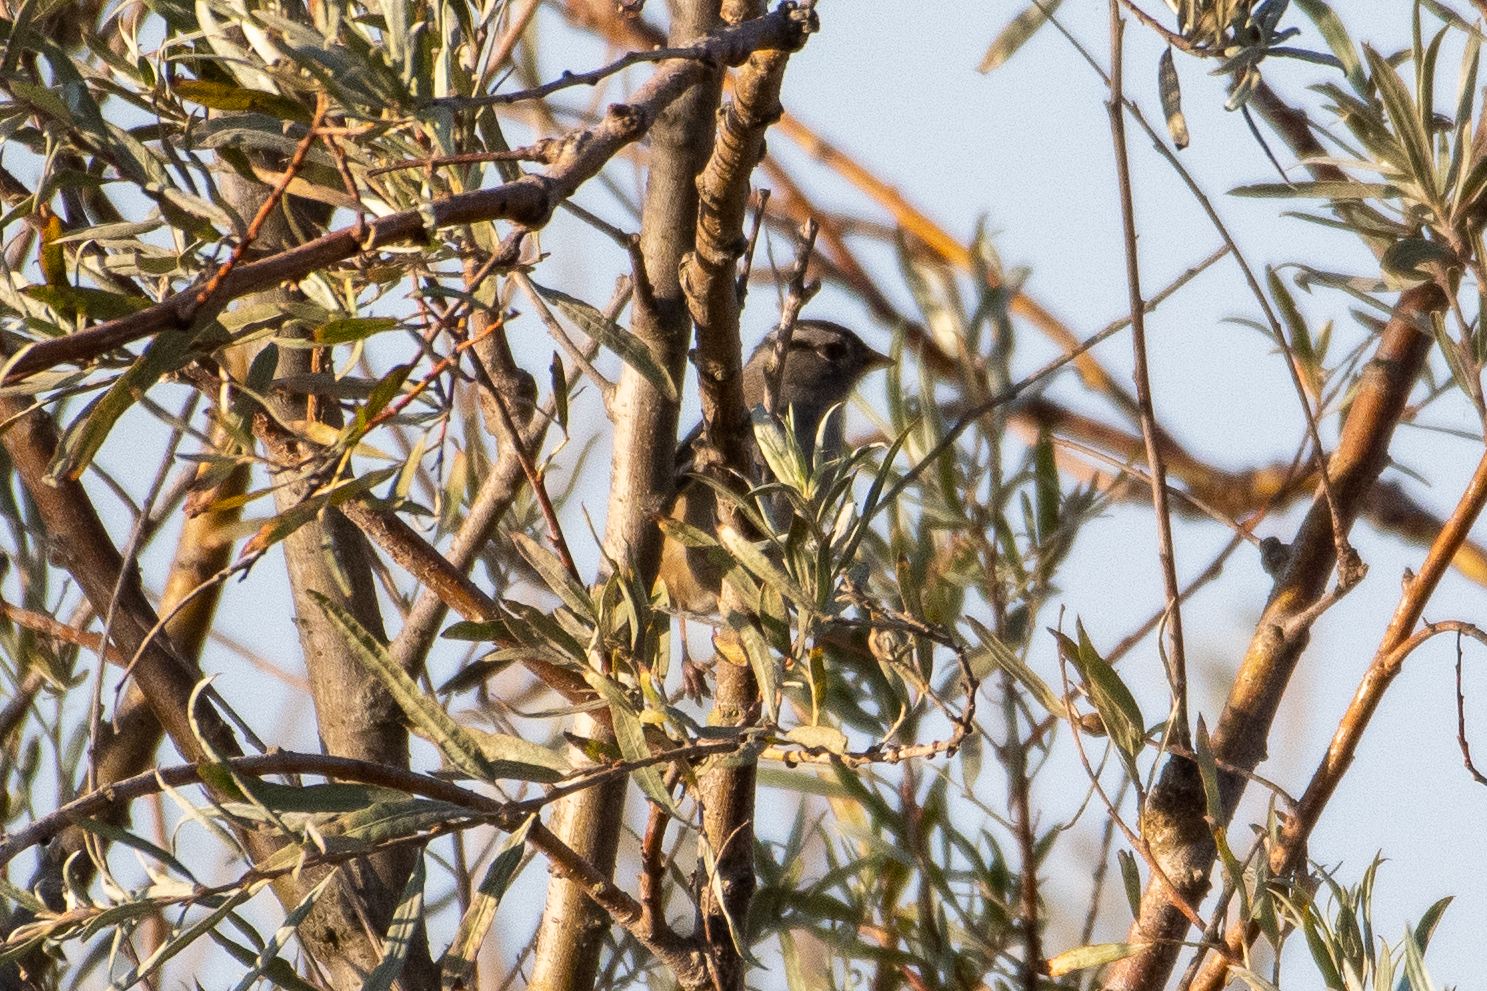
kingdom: Animalia
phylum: Chordata
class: Aves
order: Passeriformes
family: Passerellidae
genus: Zonotrichia
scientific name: Zonotrichia leucophrys
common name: White-crowned sparrow
